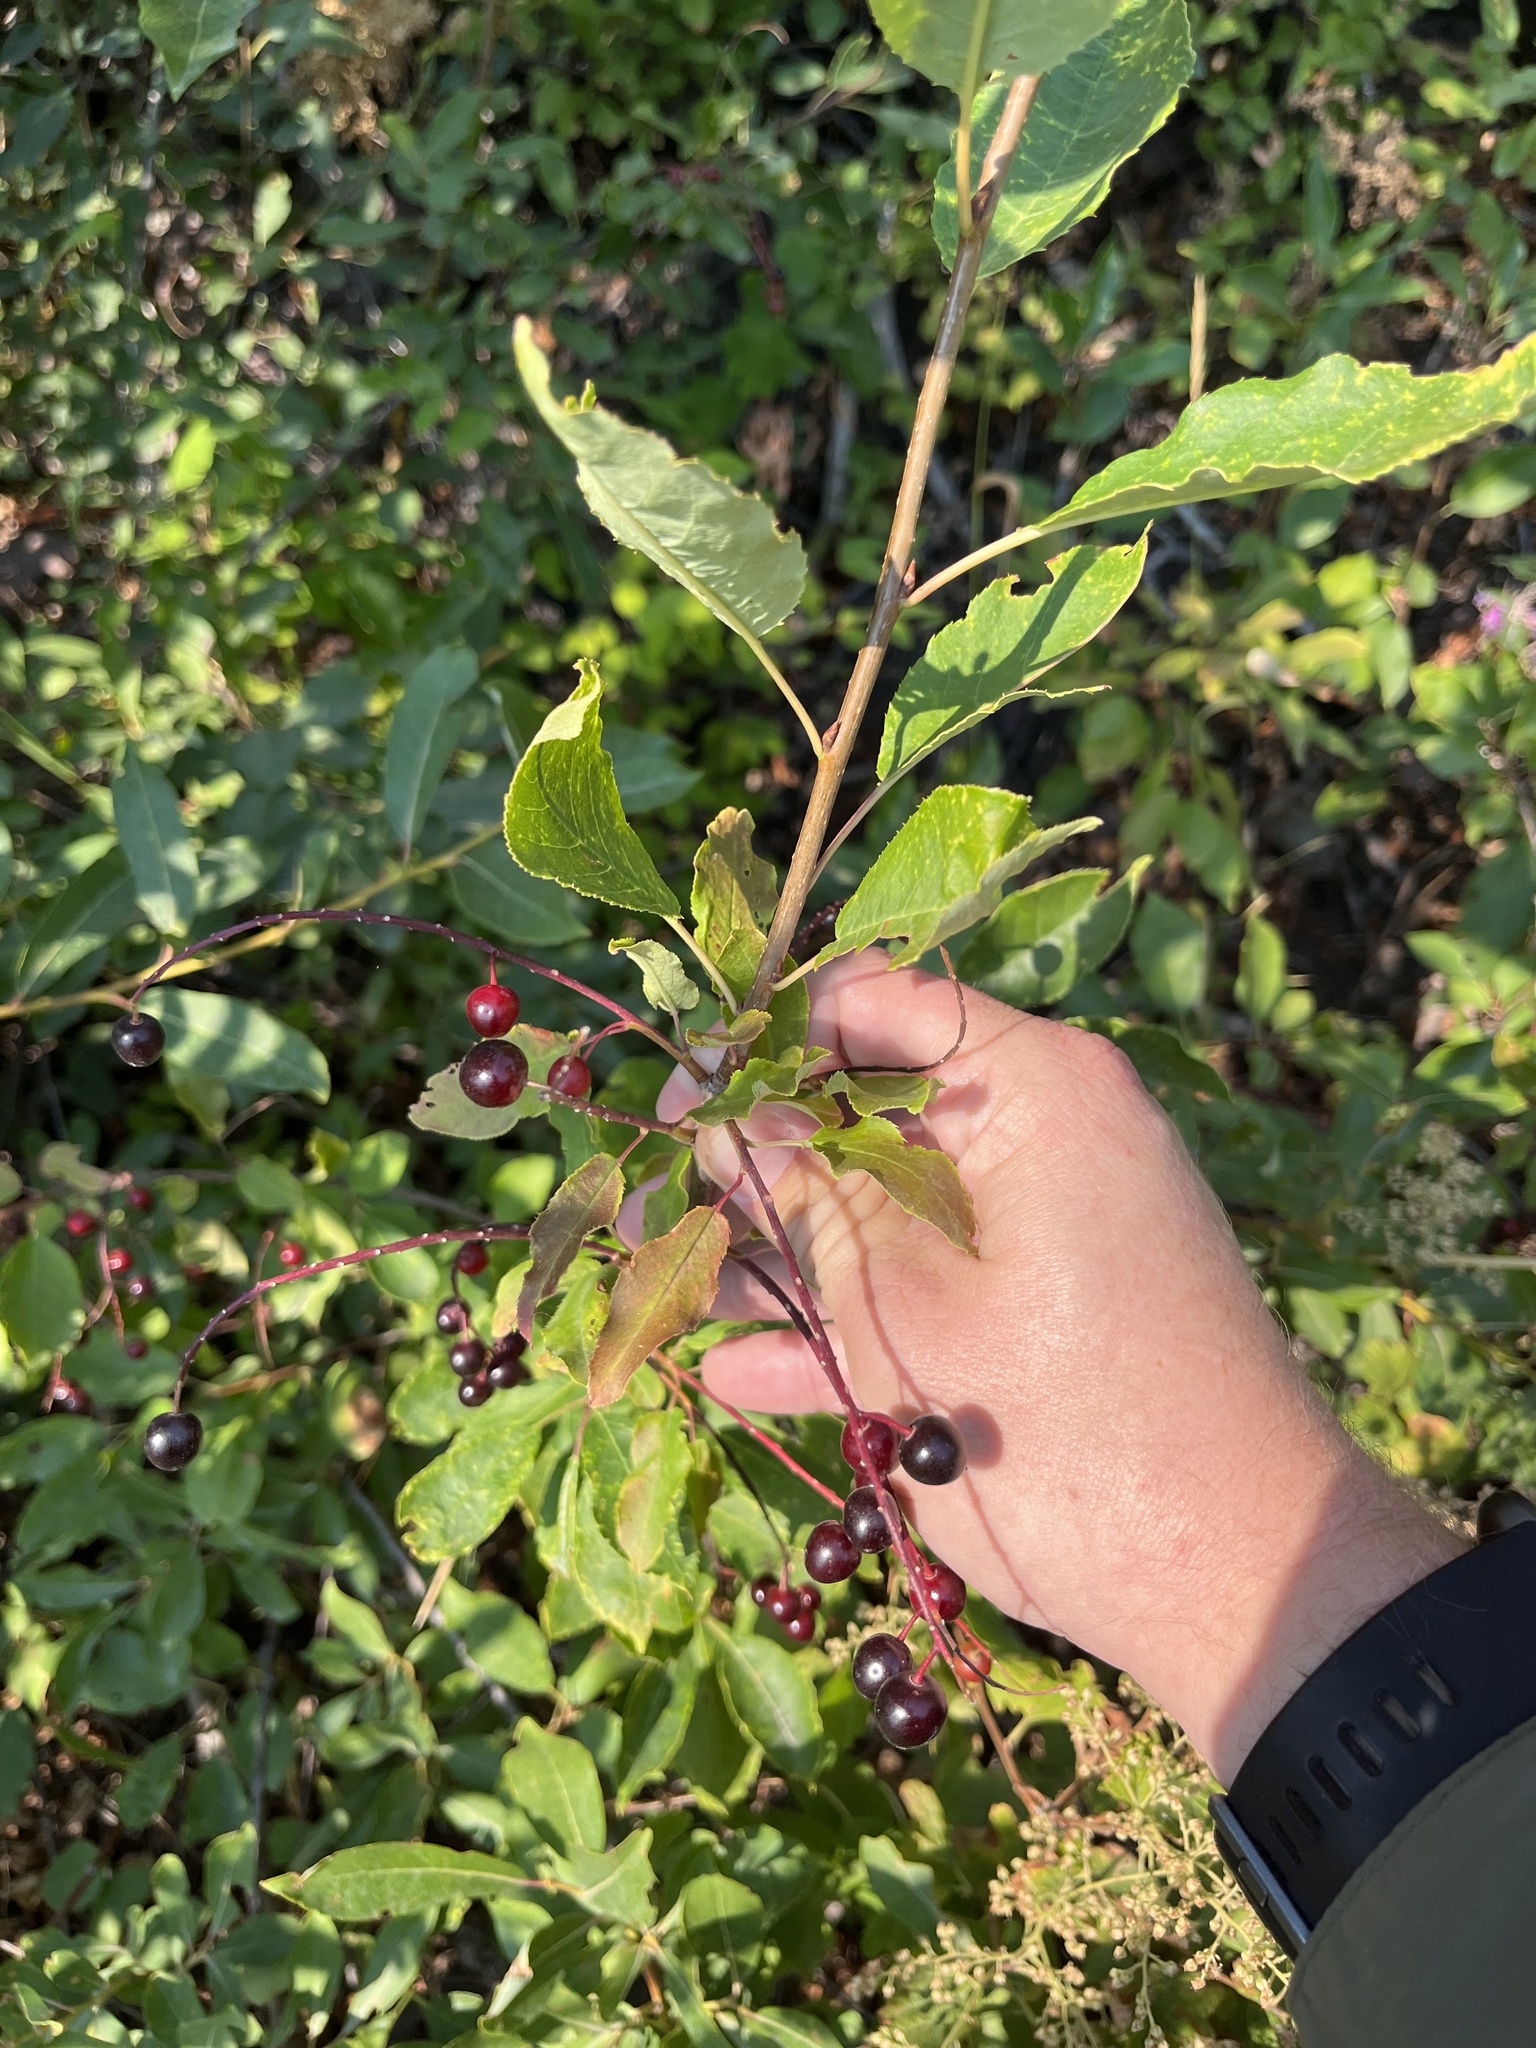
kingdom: Plantae
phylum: Tracheophyta
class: Magnoliopsida
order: Rosales
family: Rosaceae
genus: Prunus
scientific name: Prunus virginiana
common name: Chokecherry
